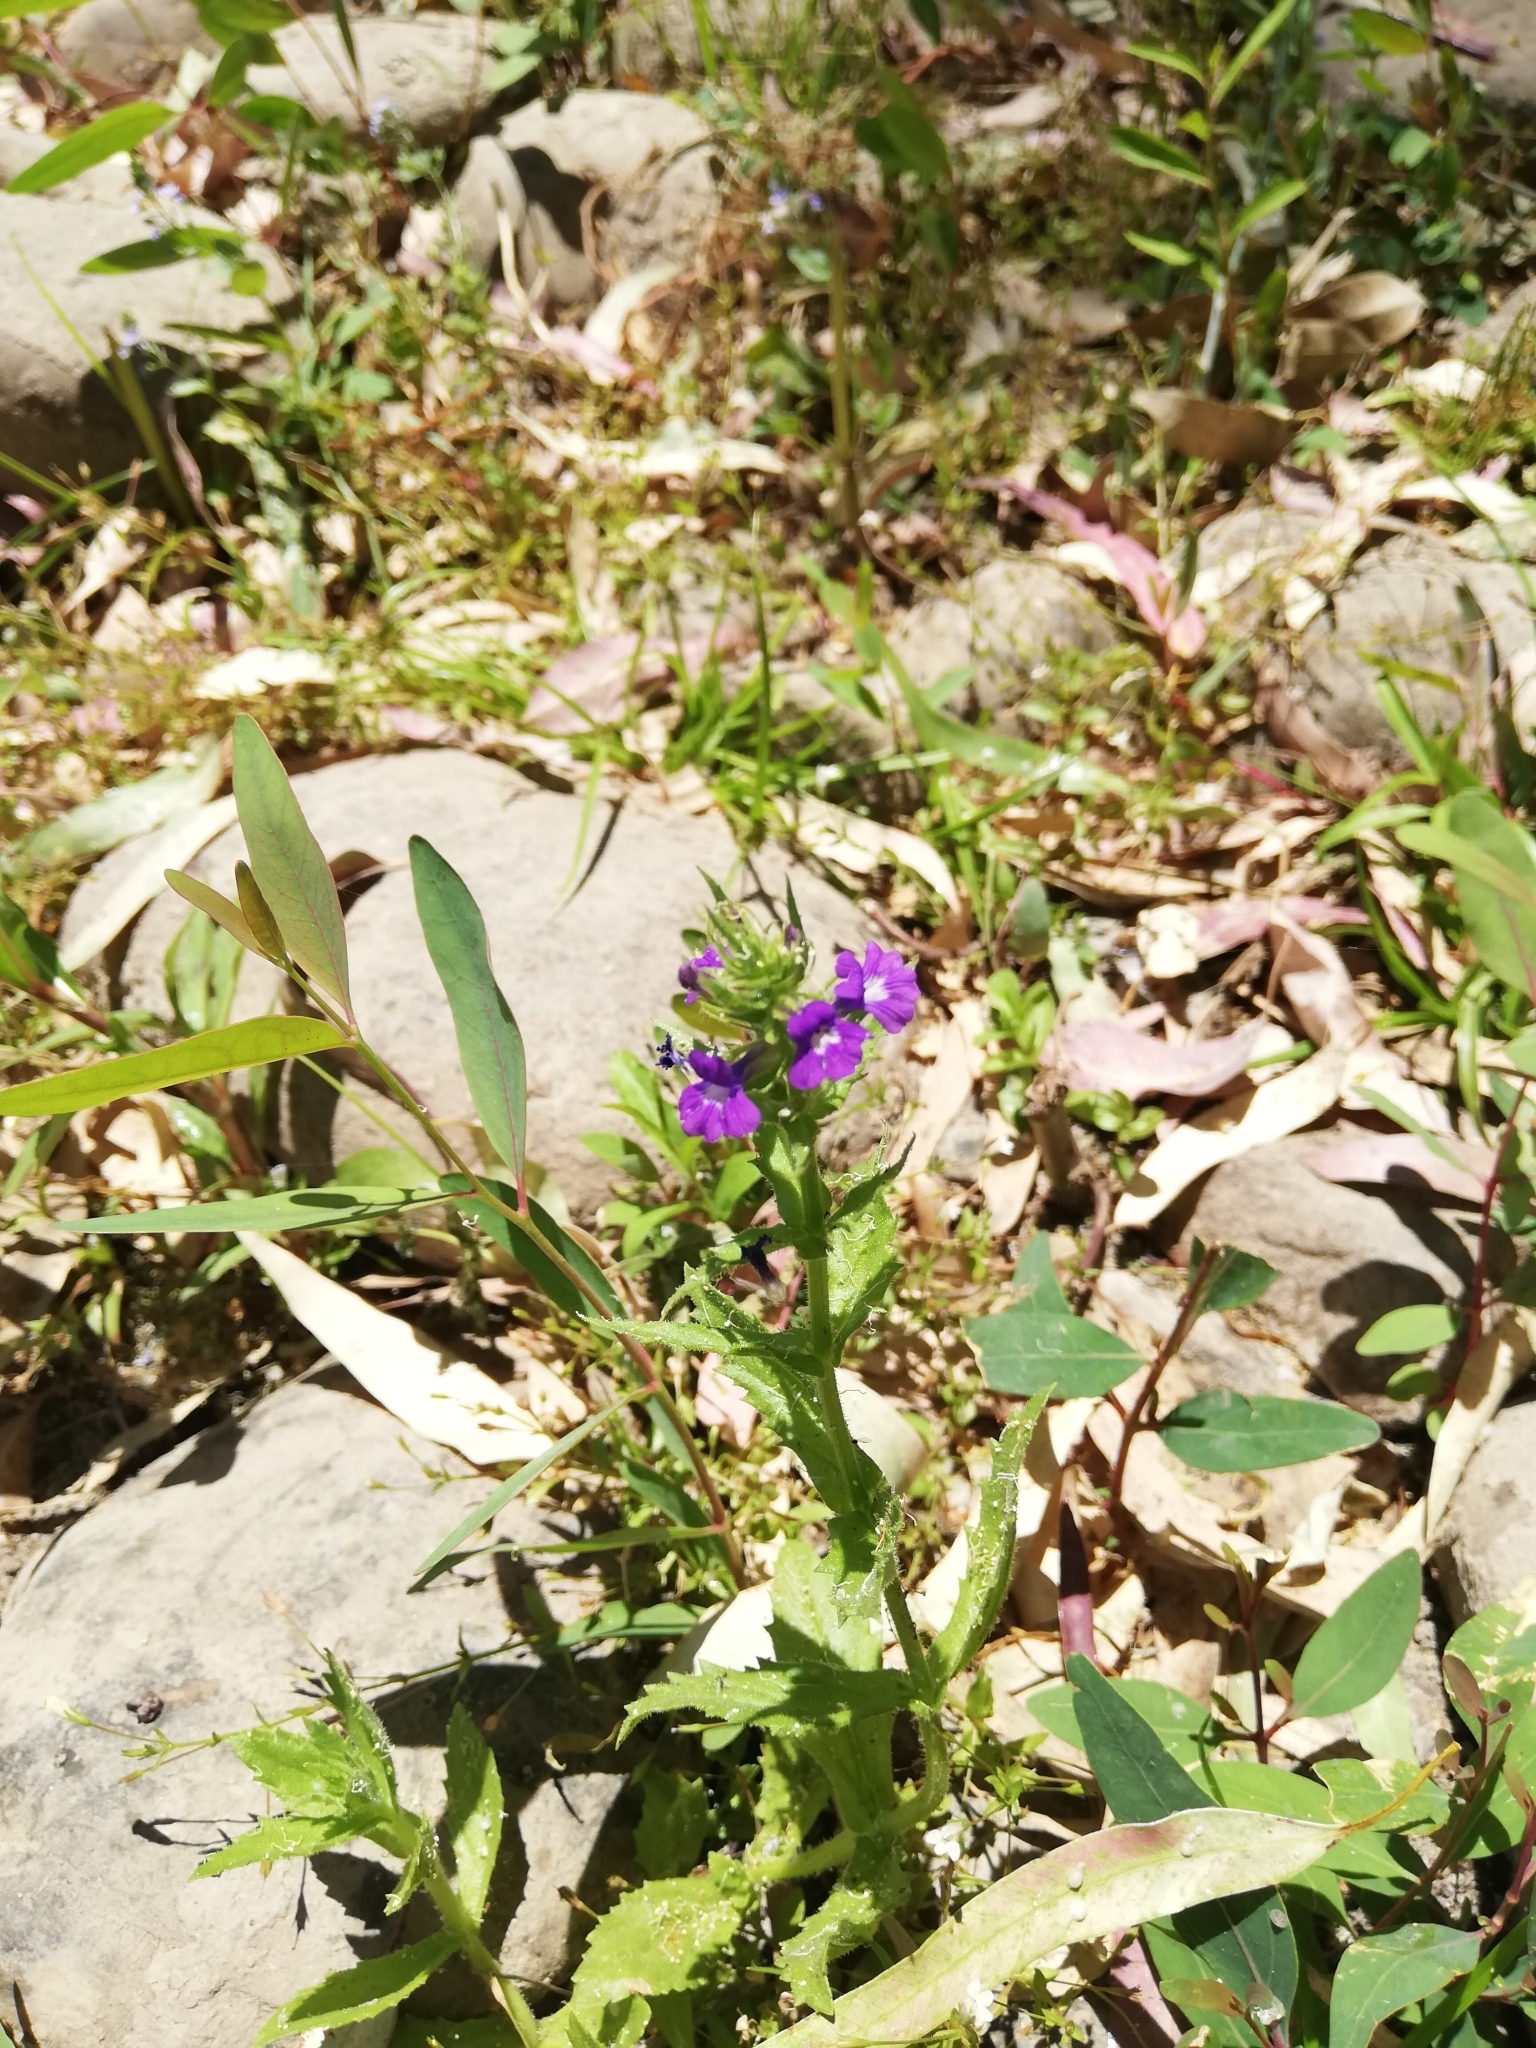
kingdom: Plantae
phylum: Tracheophyta
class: Magnoliopsida
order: Lamiales
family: Plantaginaceae
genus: Stemodia
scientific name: Stemodia durantifolia
